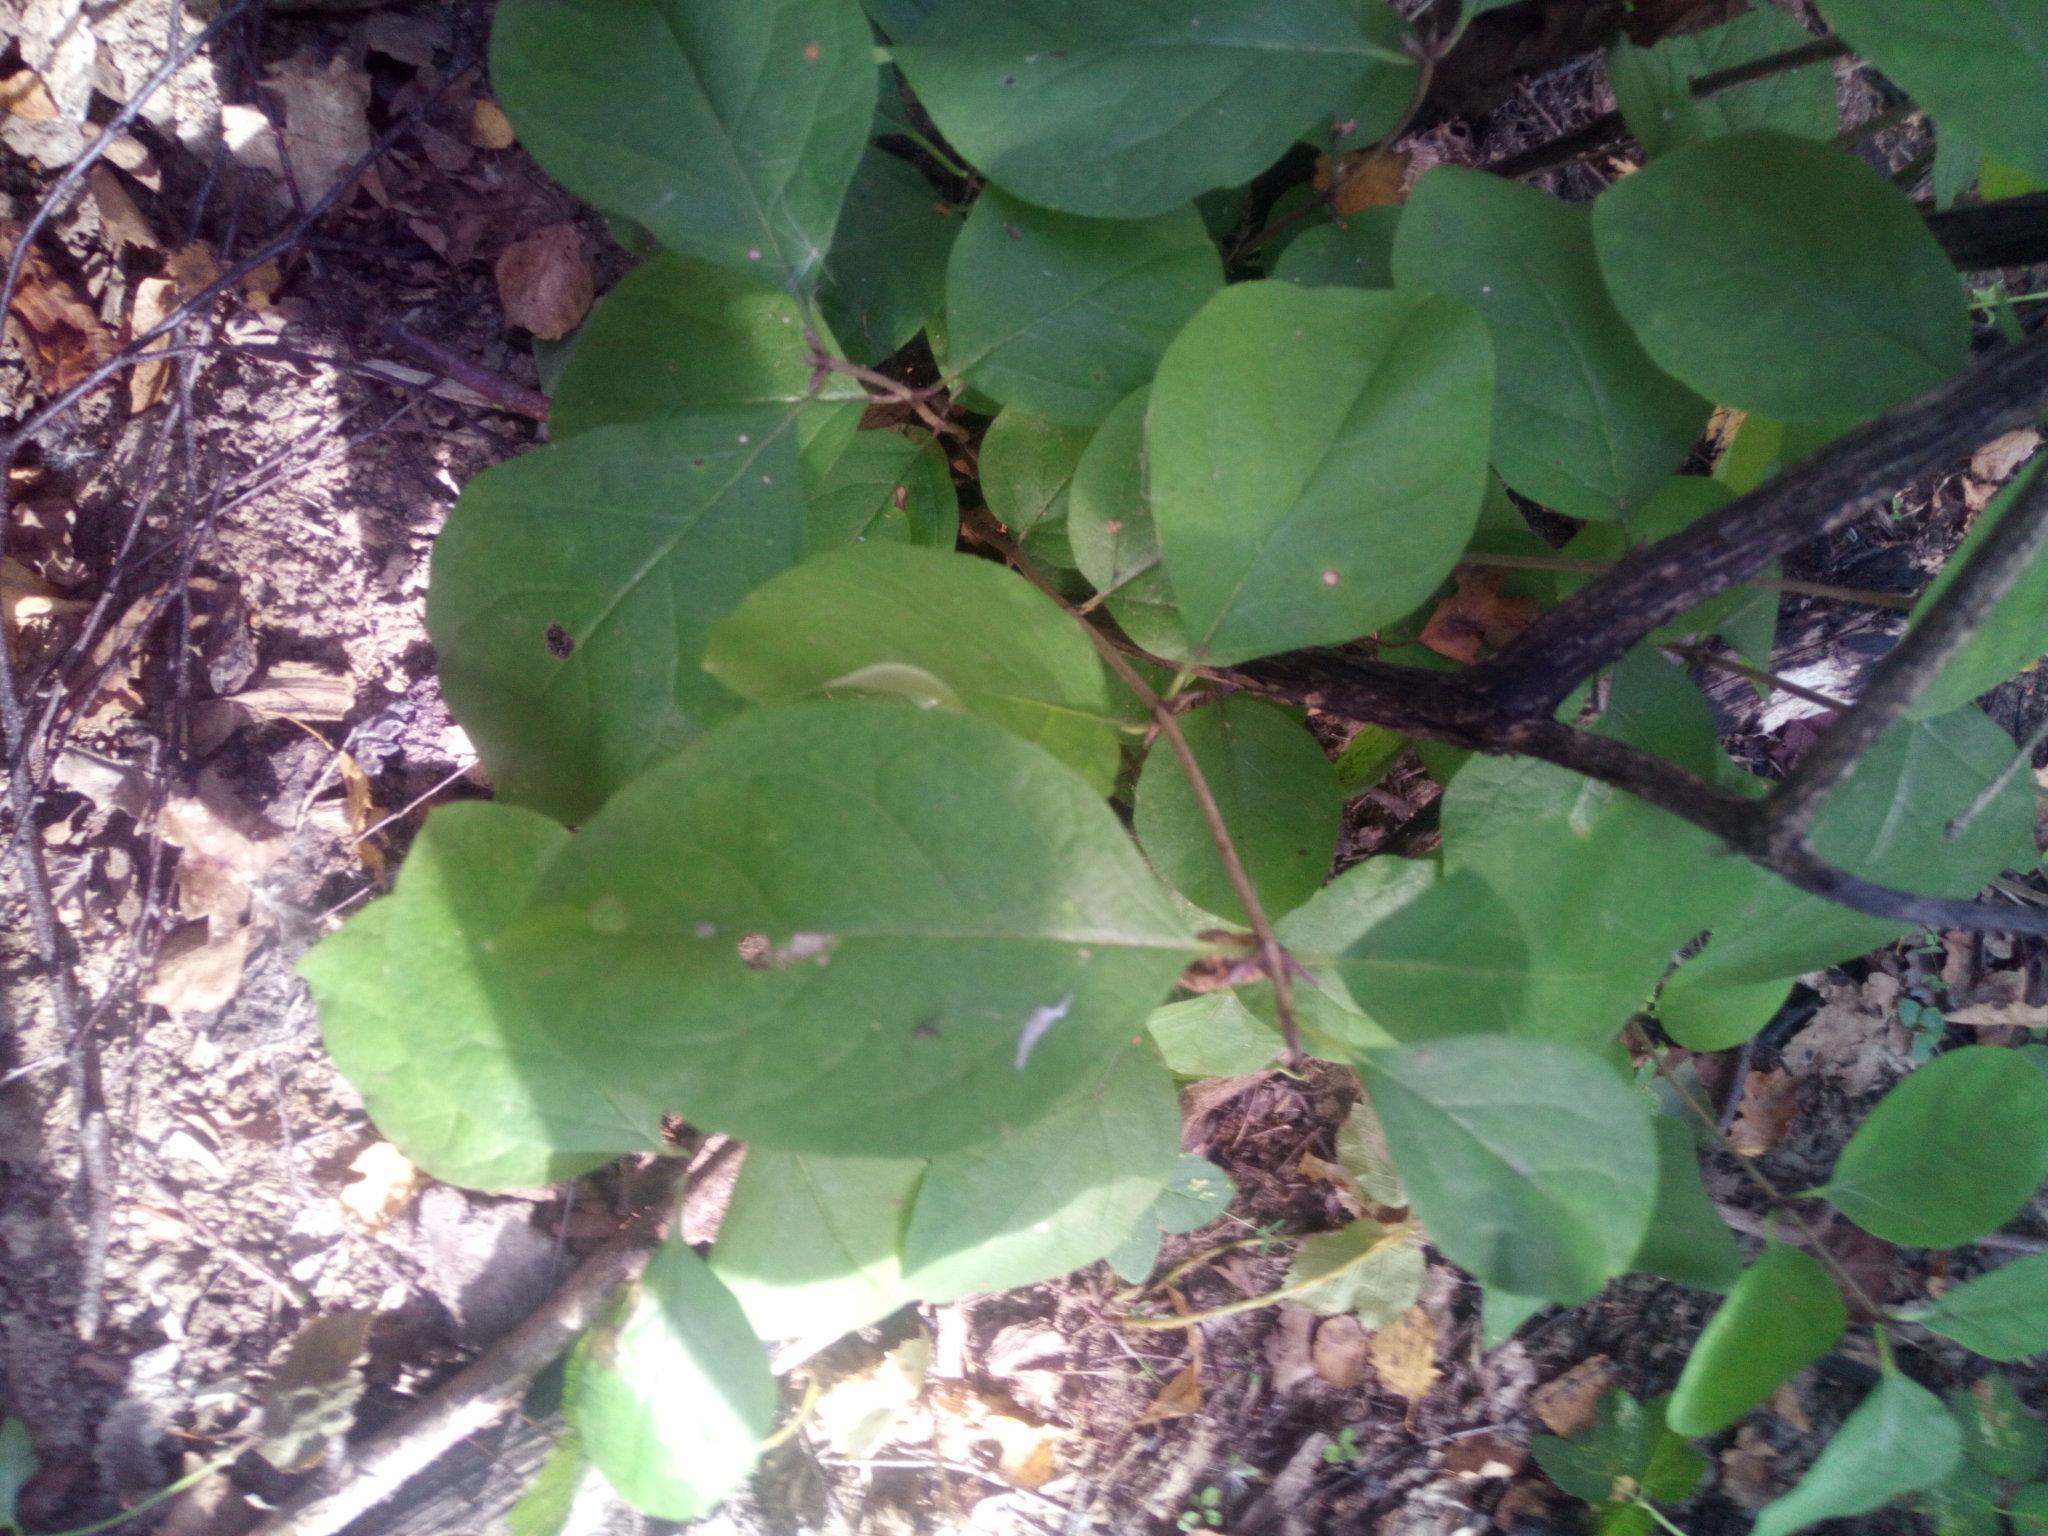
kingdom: Plantae
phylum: Tracheophyta
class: Magnoliopsida
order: Dipsacales
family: Caprifoliaceae
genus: Lonicera
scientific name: Lonicera caprifolium
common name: Perfoliate honeysuckle
